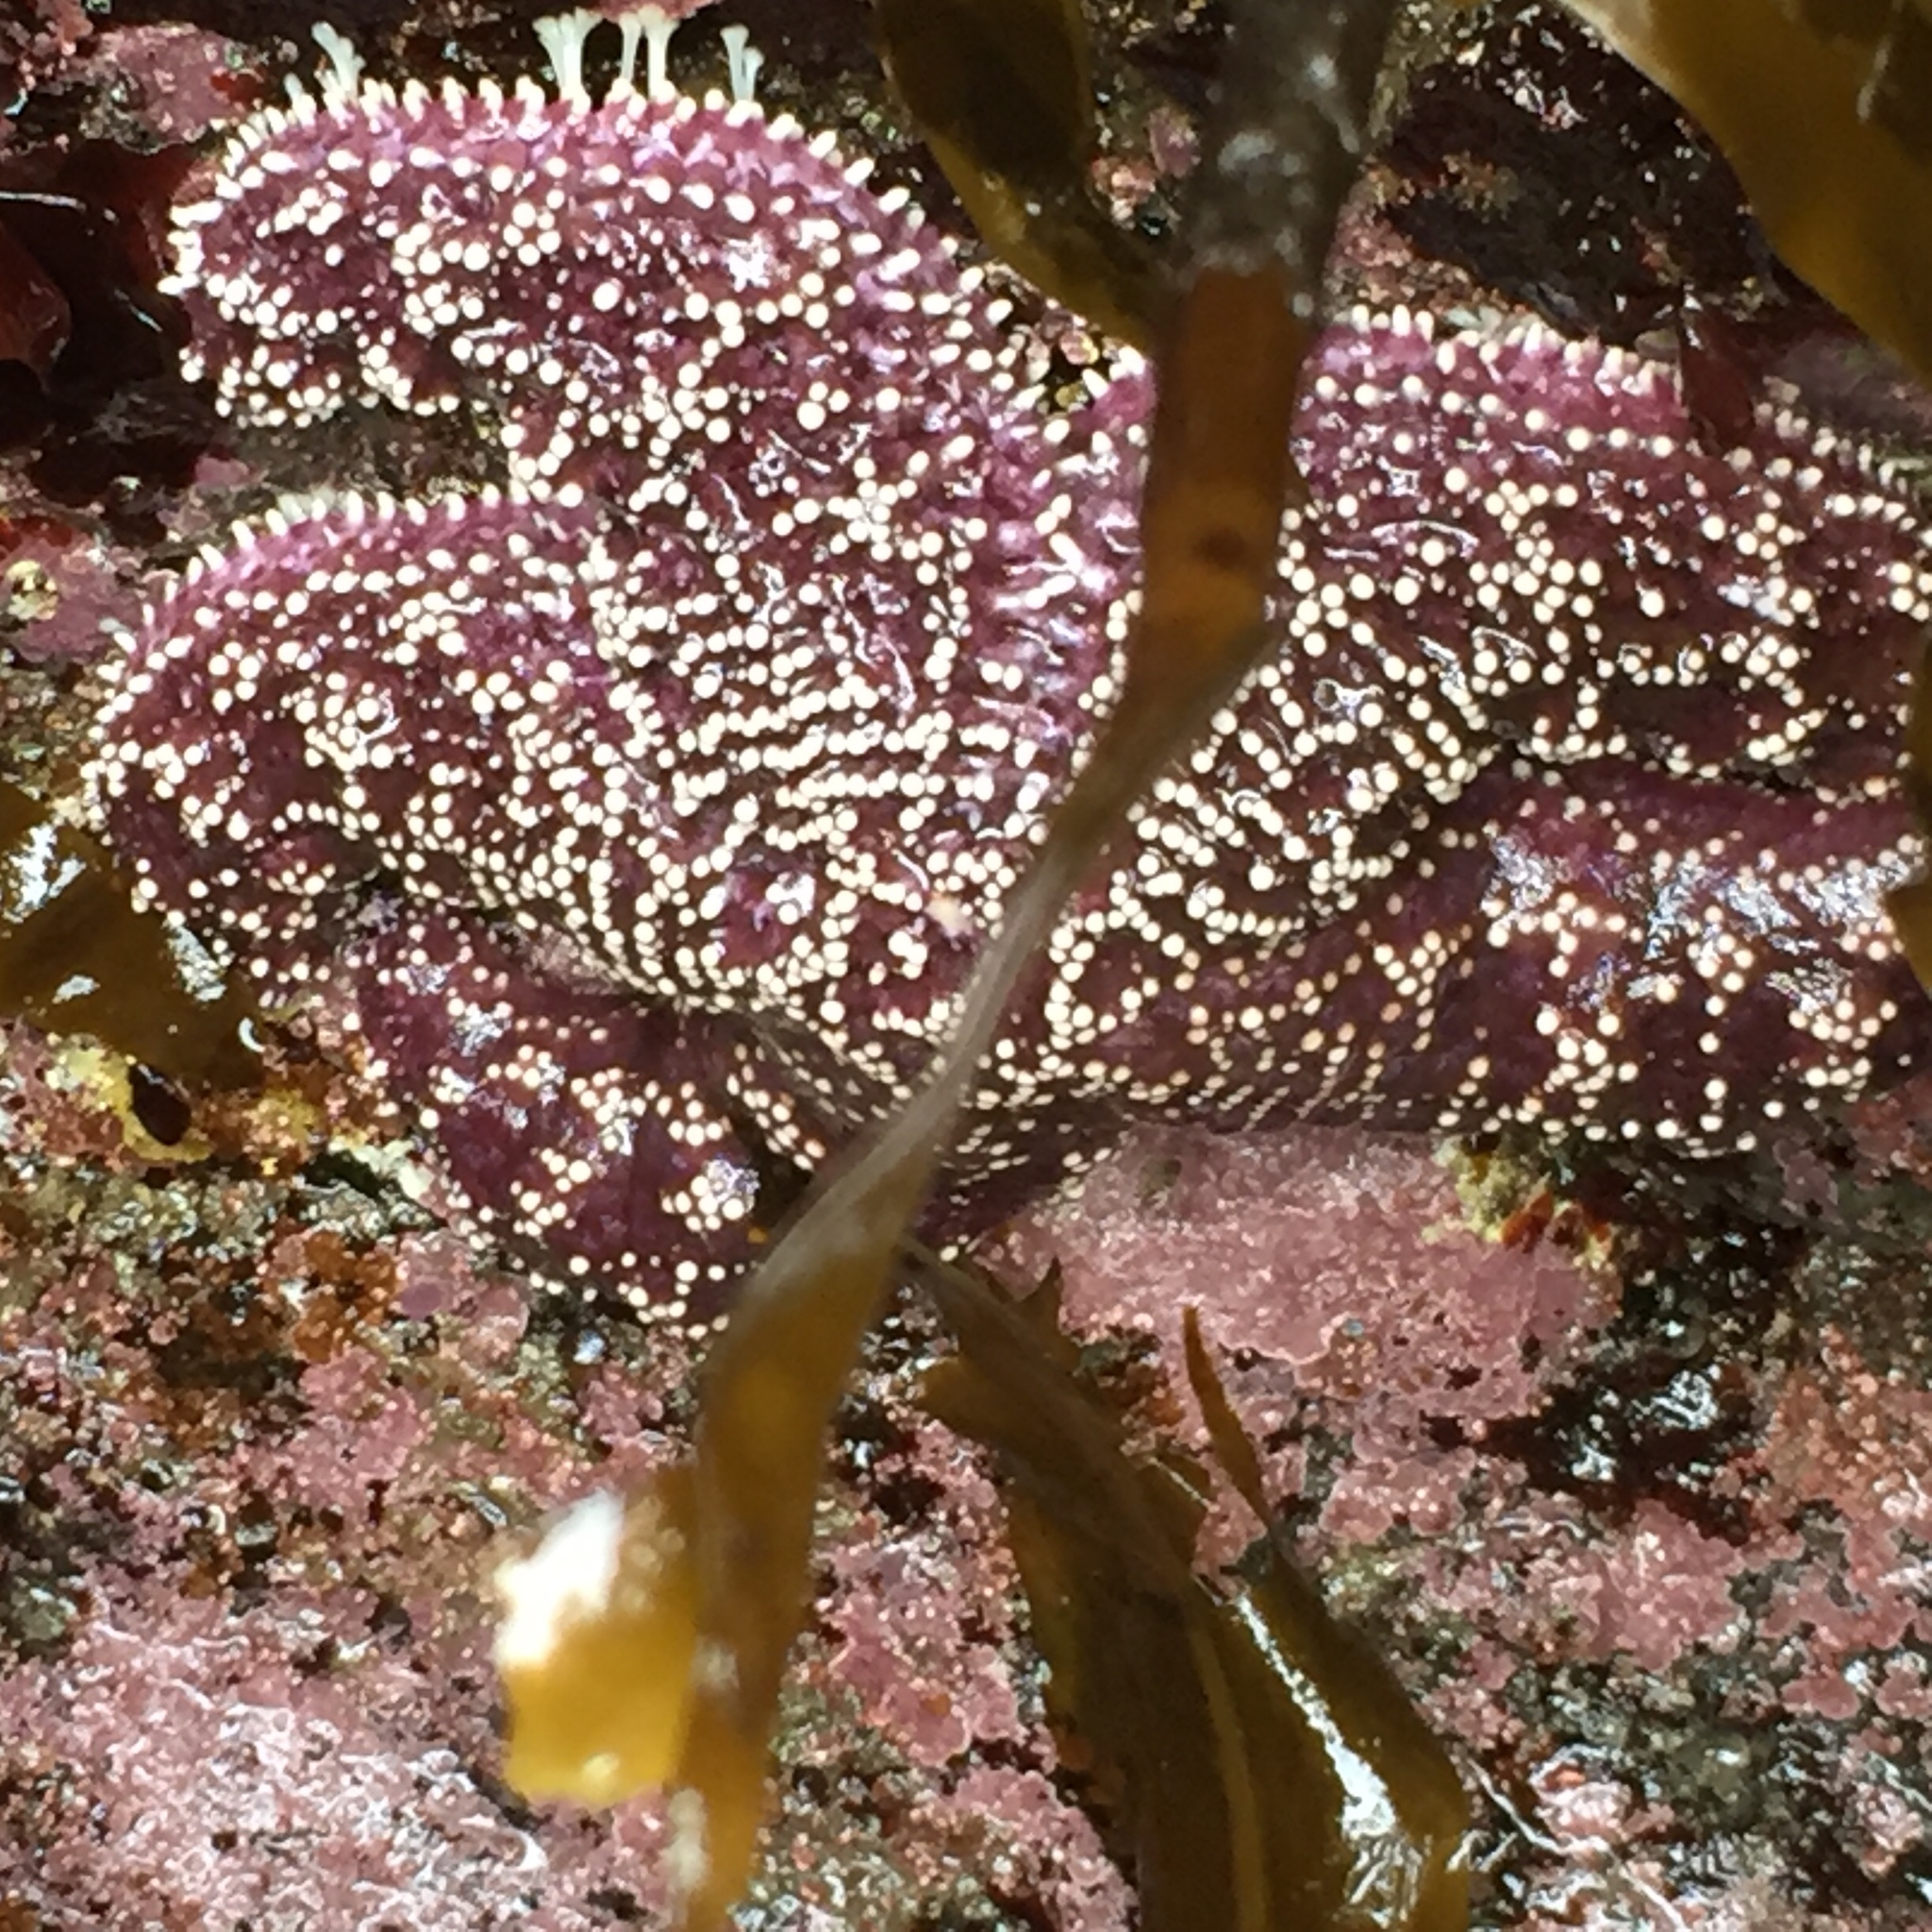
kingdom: Animalia
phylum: Echinodermata
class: Asteroidea
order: Forcipulatida
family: Asteriidae
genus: Pisaster
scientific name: Pisaster ochraceus
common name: Ochre stars
